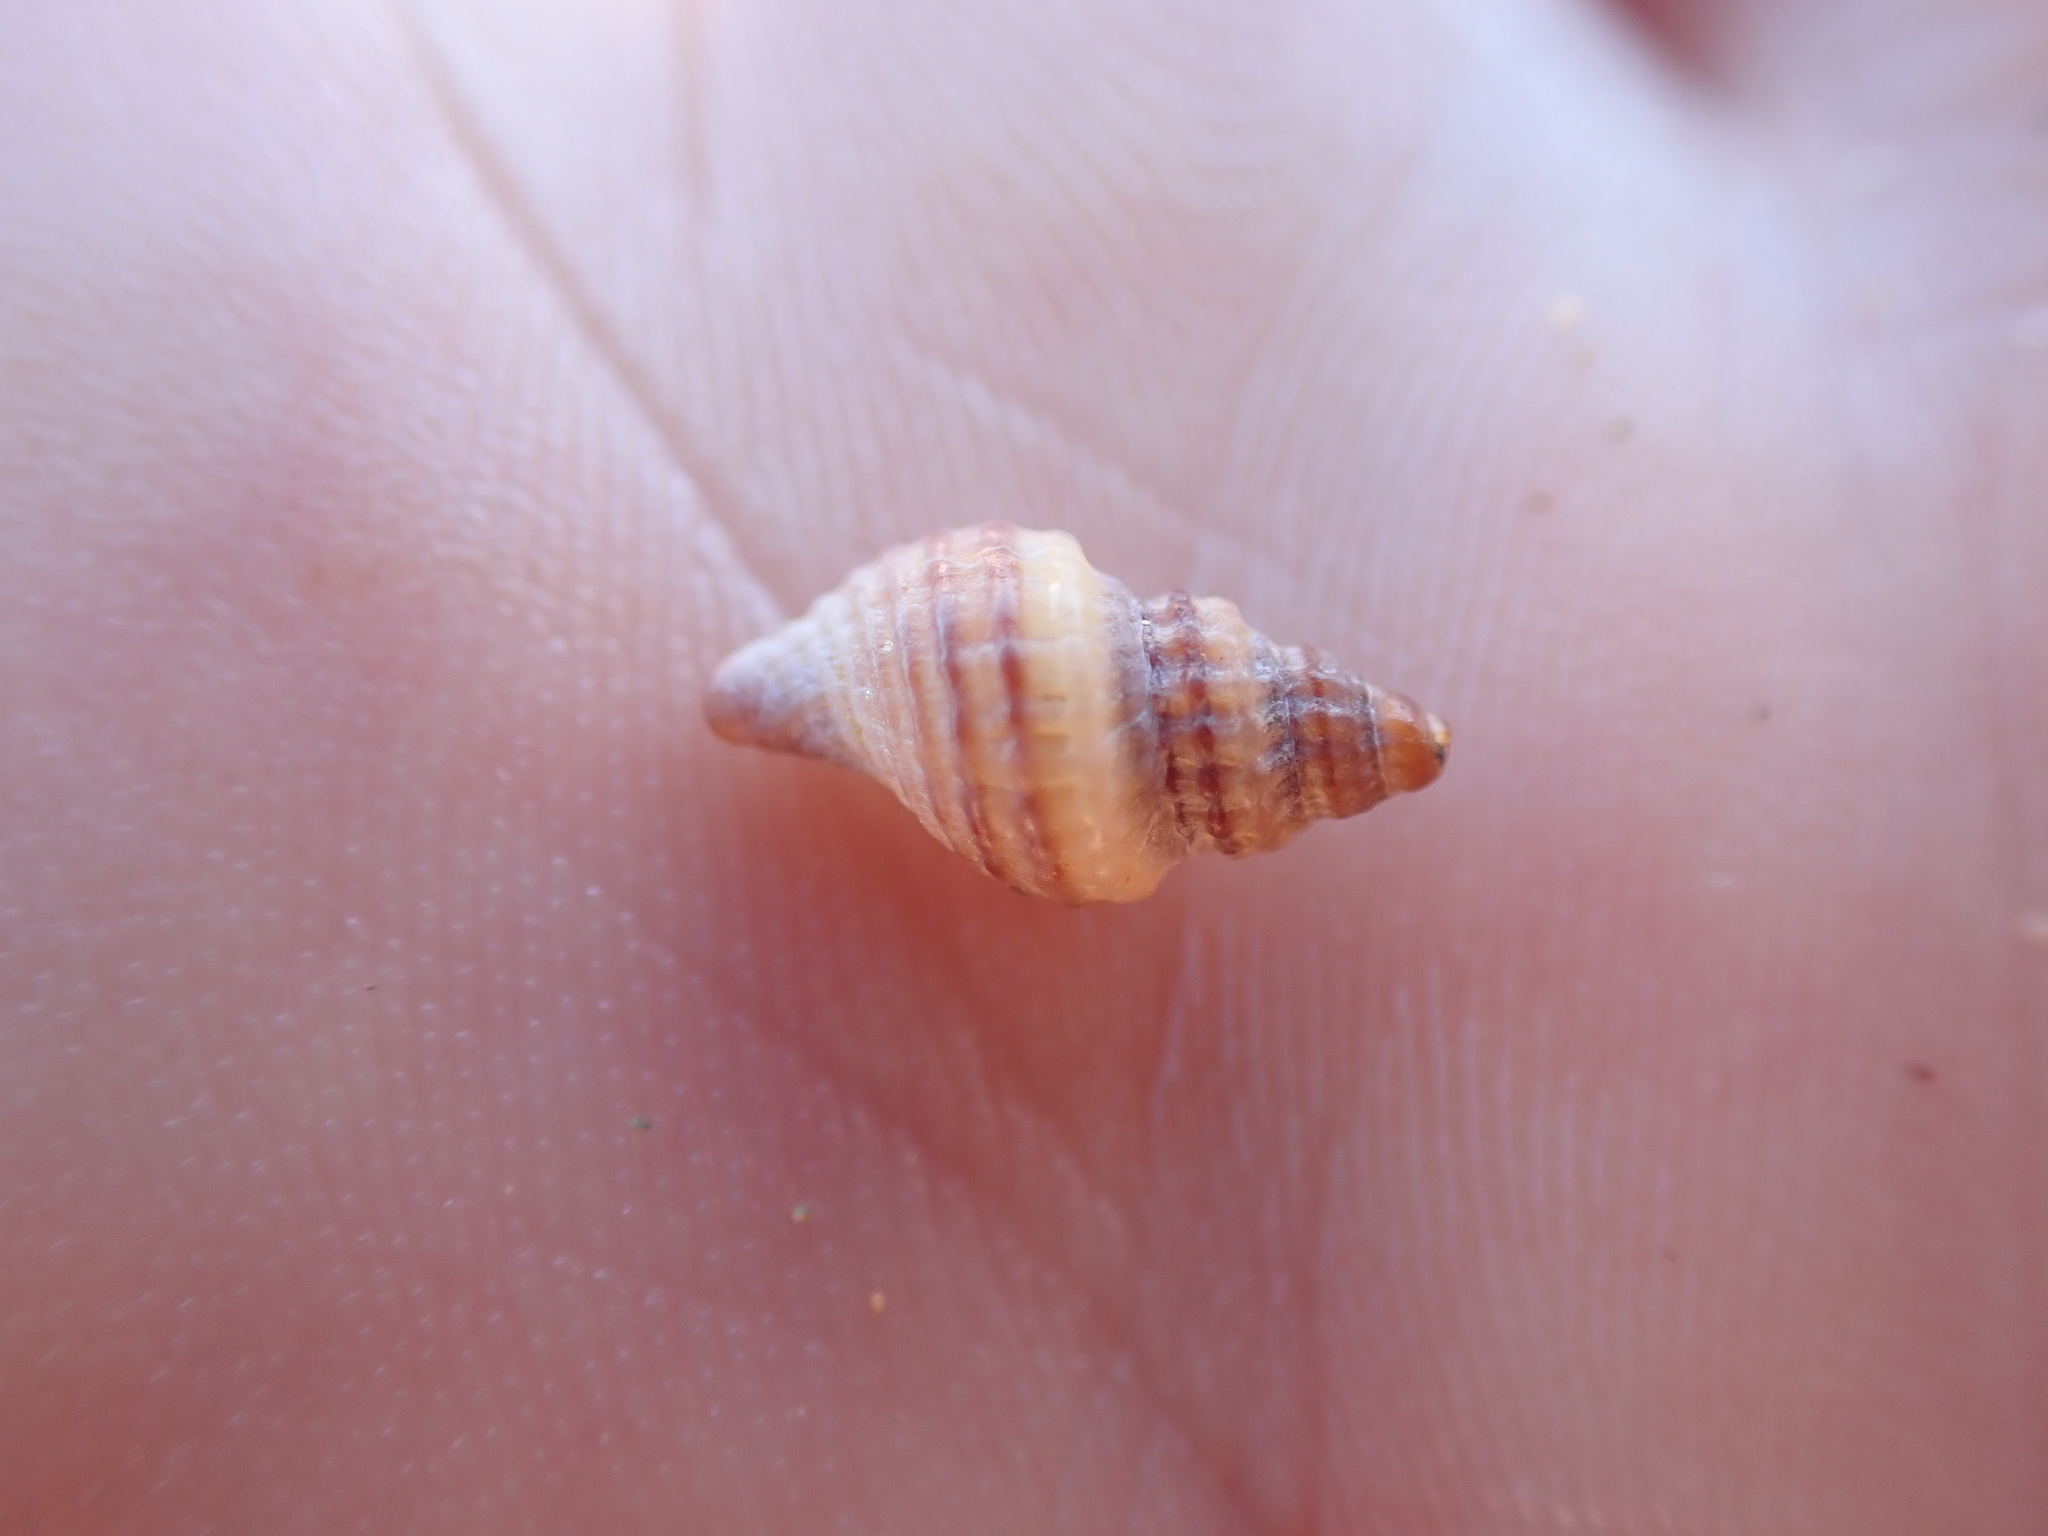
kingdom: Animalia
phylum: Mollusca
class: Gastropoda
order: Neogastropoda
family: Muricidae
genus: Xymene
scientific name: Xymene plebeius
